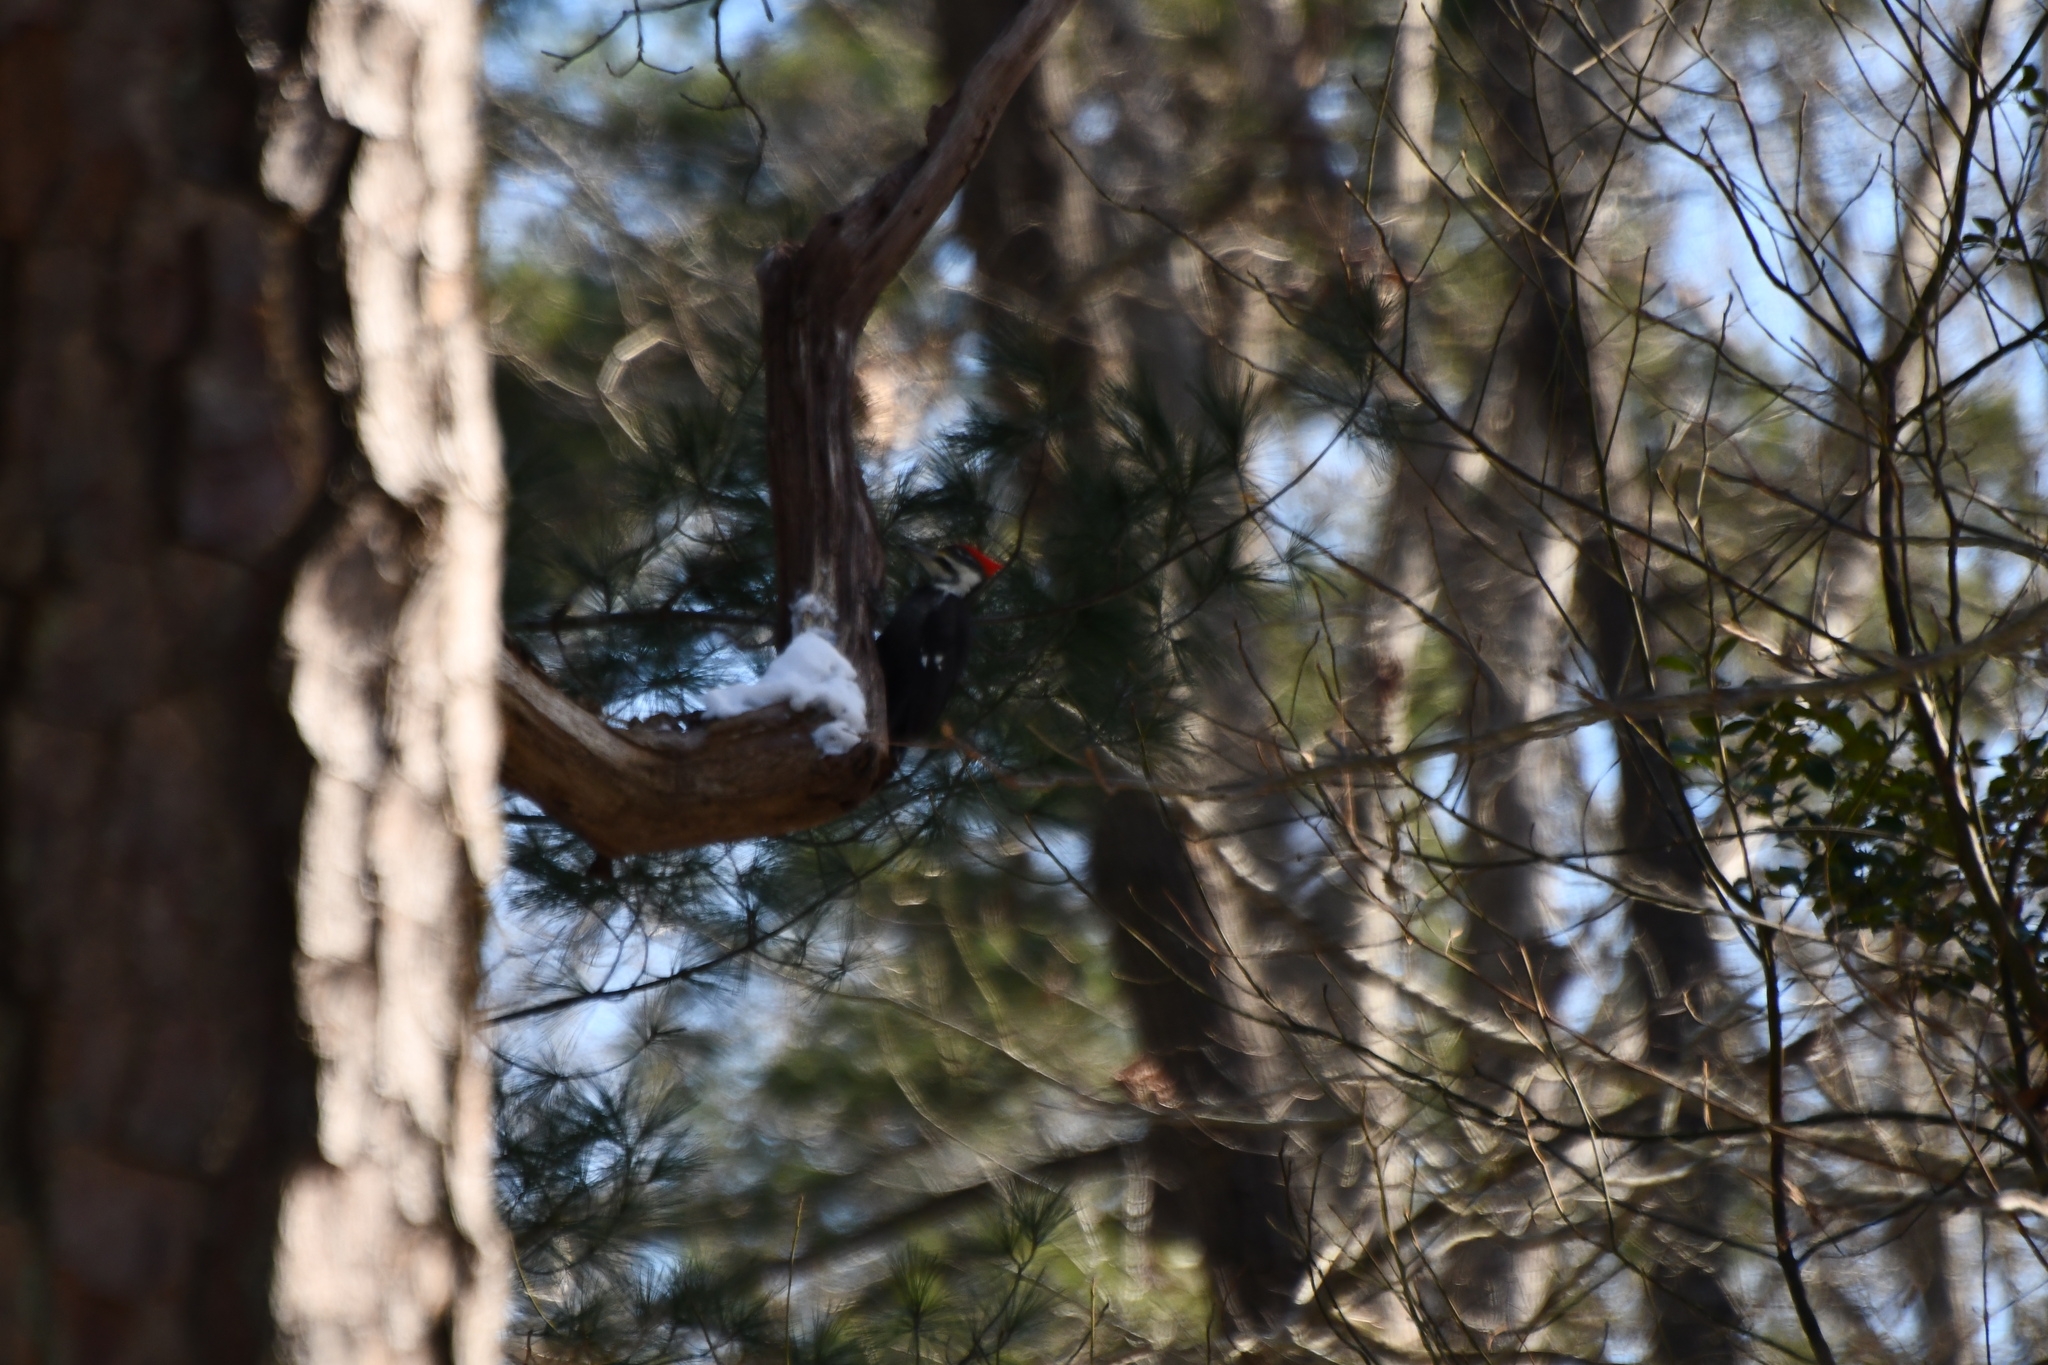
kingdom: Animalia
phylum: Chordata
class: Aves
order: Piciformes
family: Picidae
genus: Dryocopus
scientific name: Dryocopus pileatus
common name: Pileated woodpecker
